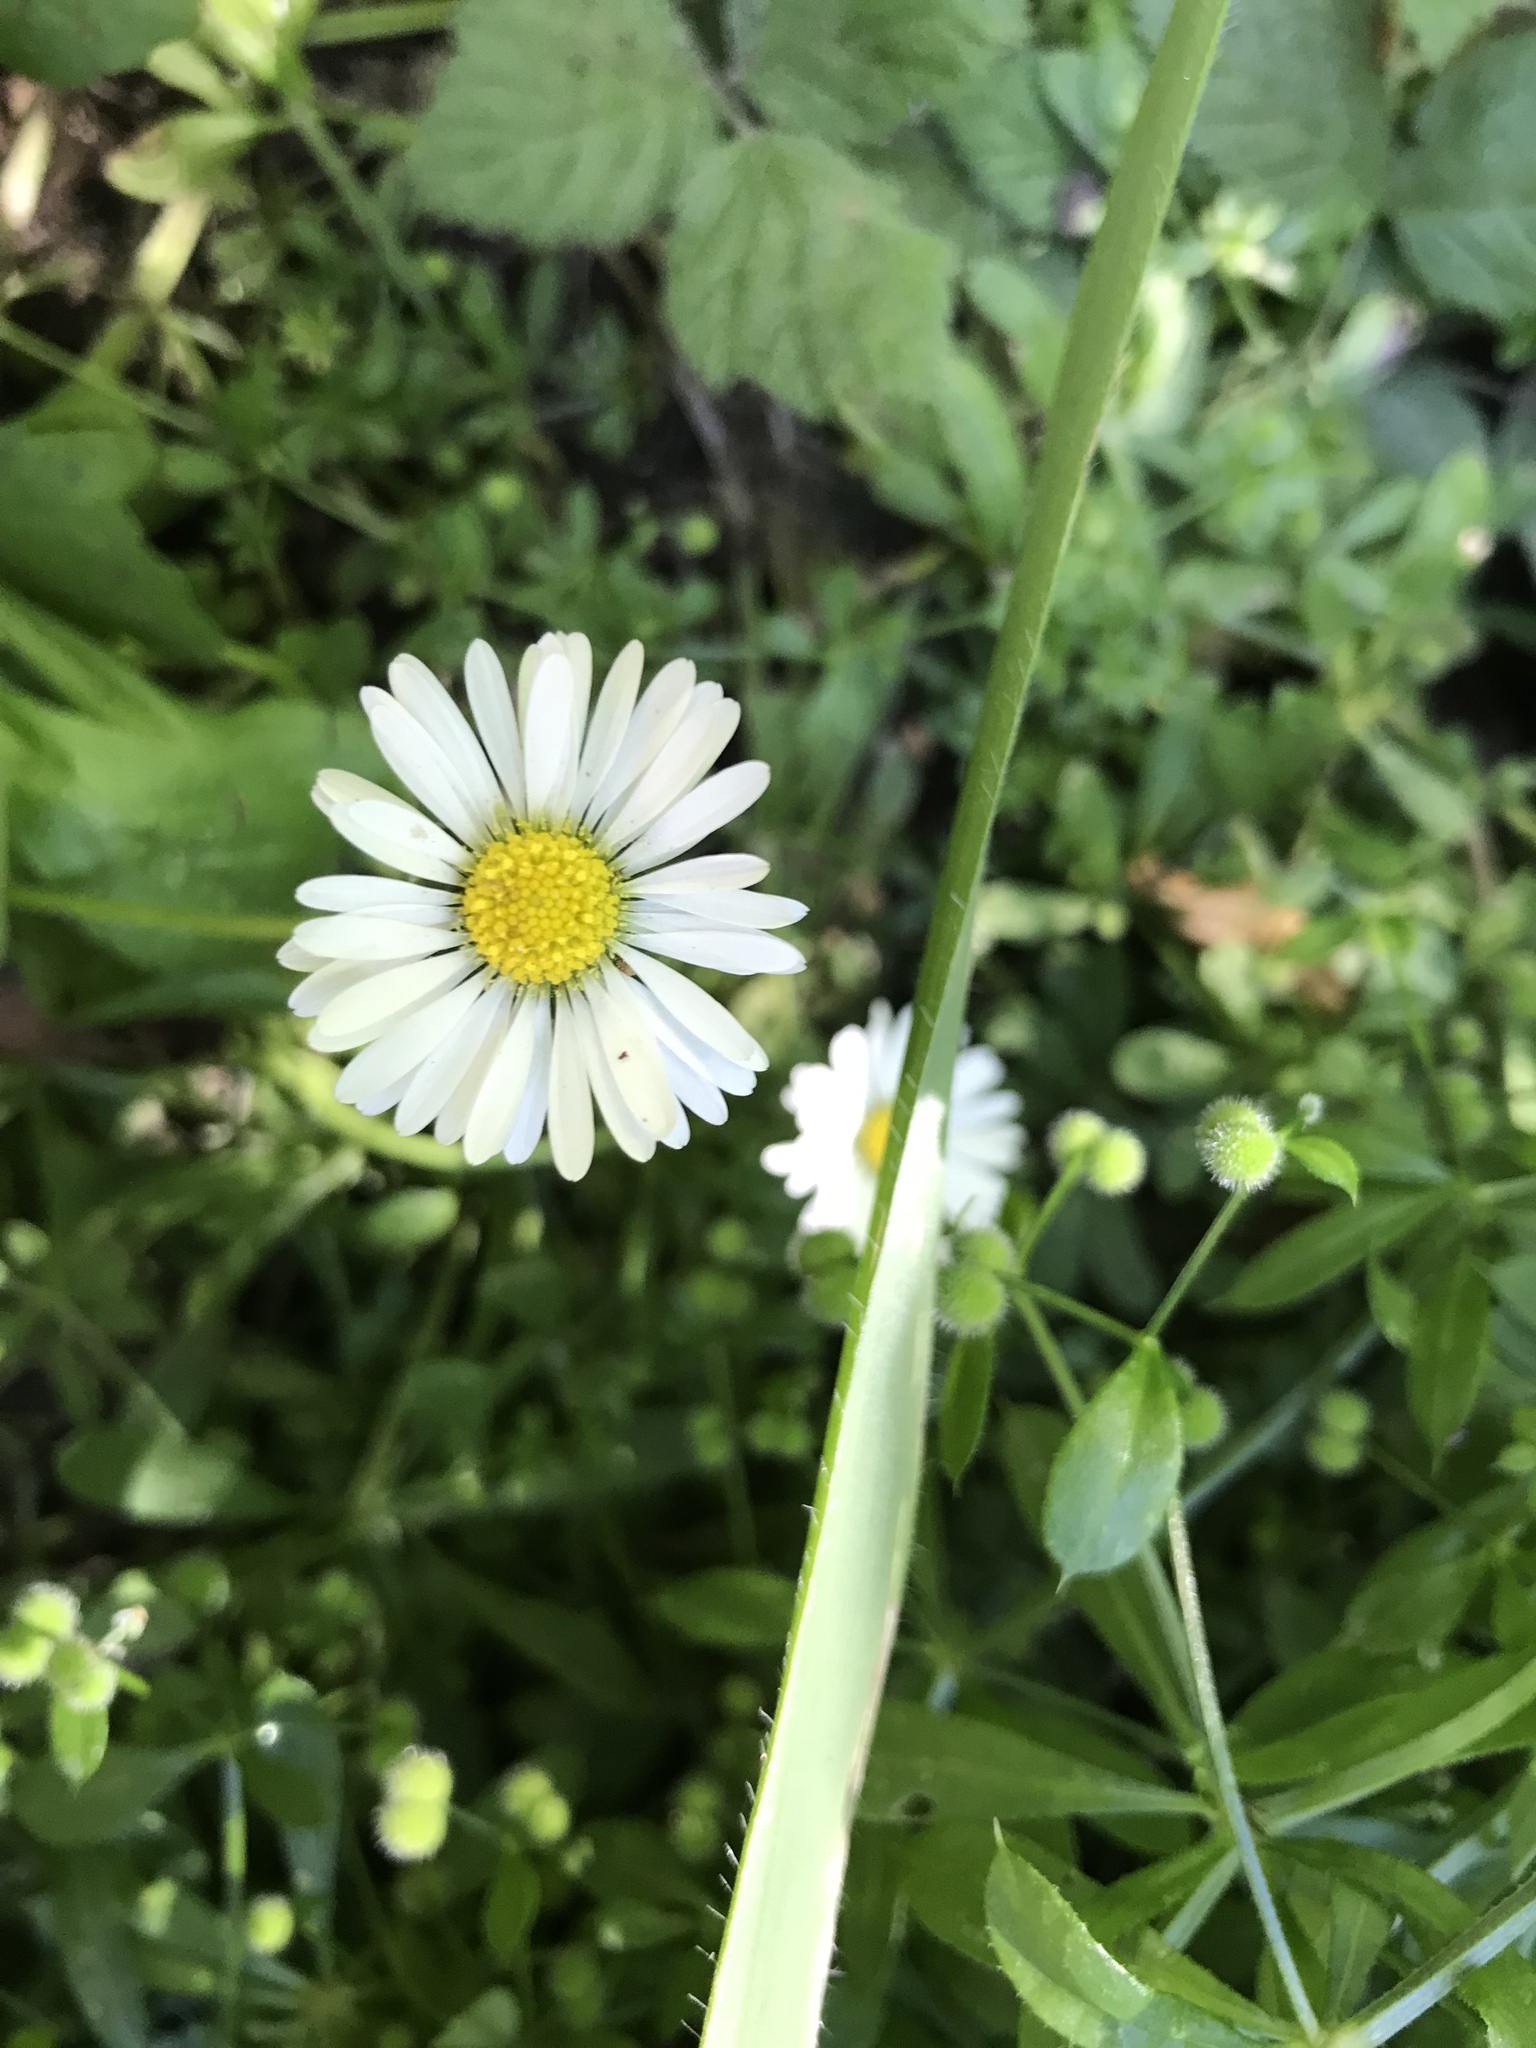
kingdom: Plantae
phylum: Tracheophyta
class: Magnoliopsida
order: Asterales
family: Asteraceae
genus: Bellis
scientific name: Bellis perennis
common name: Lawndaisy
